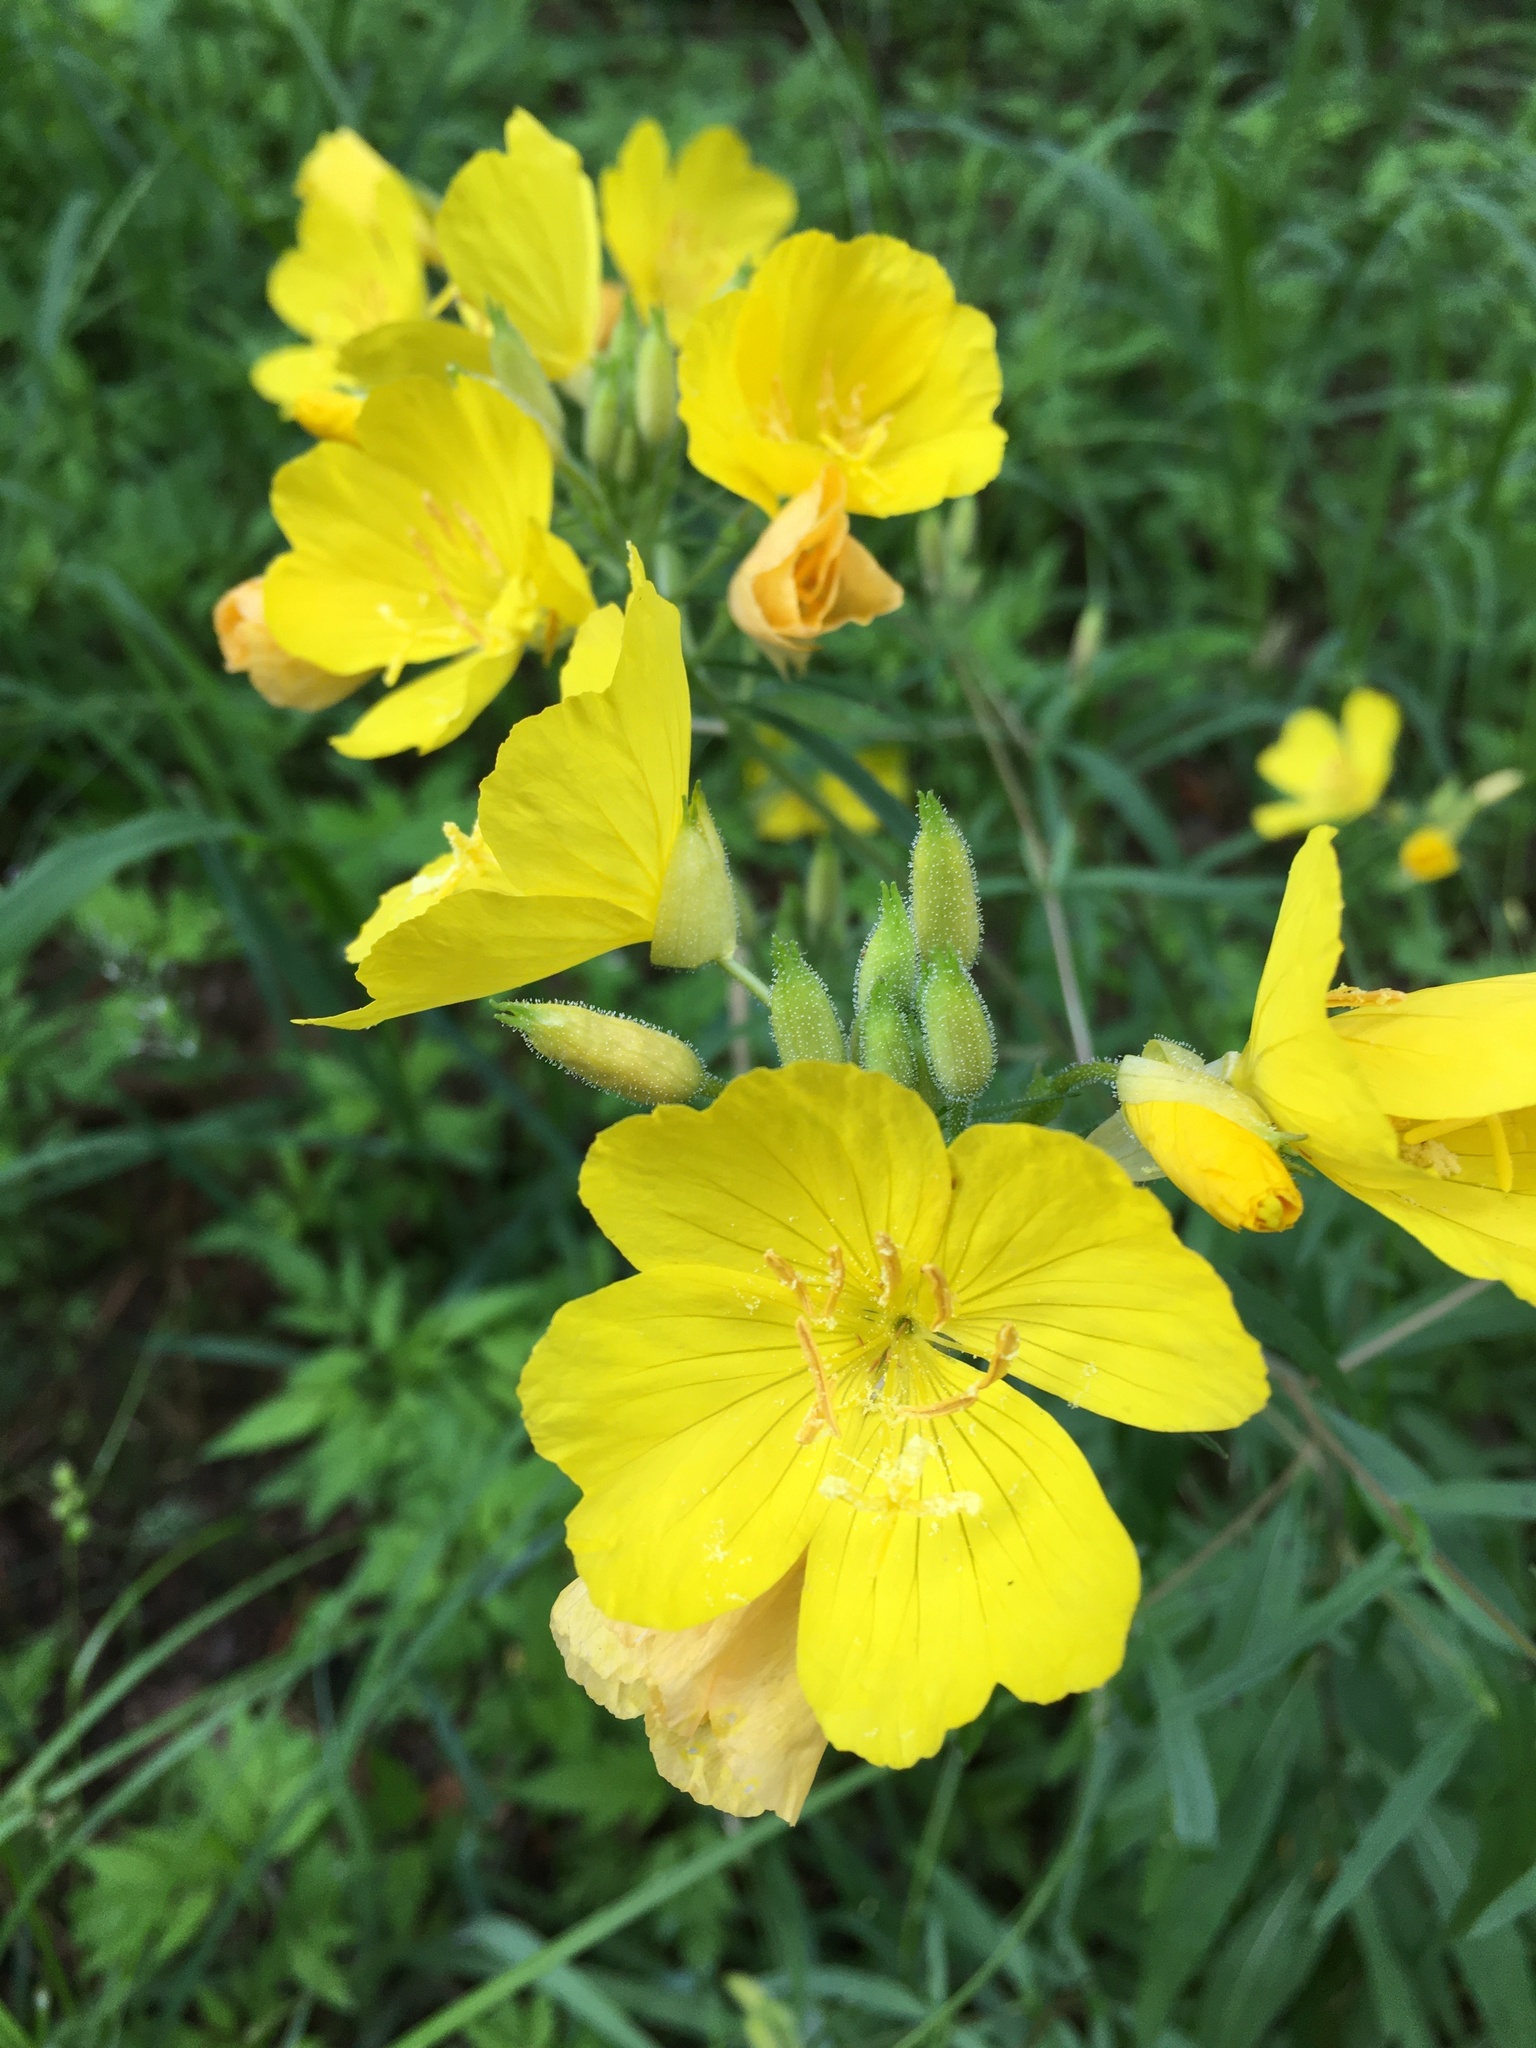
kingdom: Plantae
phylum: Tracheophyta
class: Magnoliopsida
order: Myrtales
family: Onagraceae
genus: Oenothera
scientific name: Oenothera fruticosa
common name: Southern sundrops
